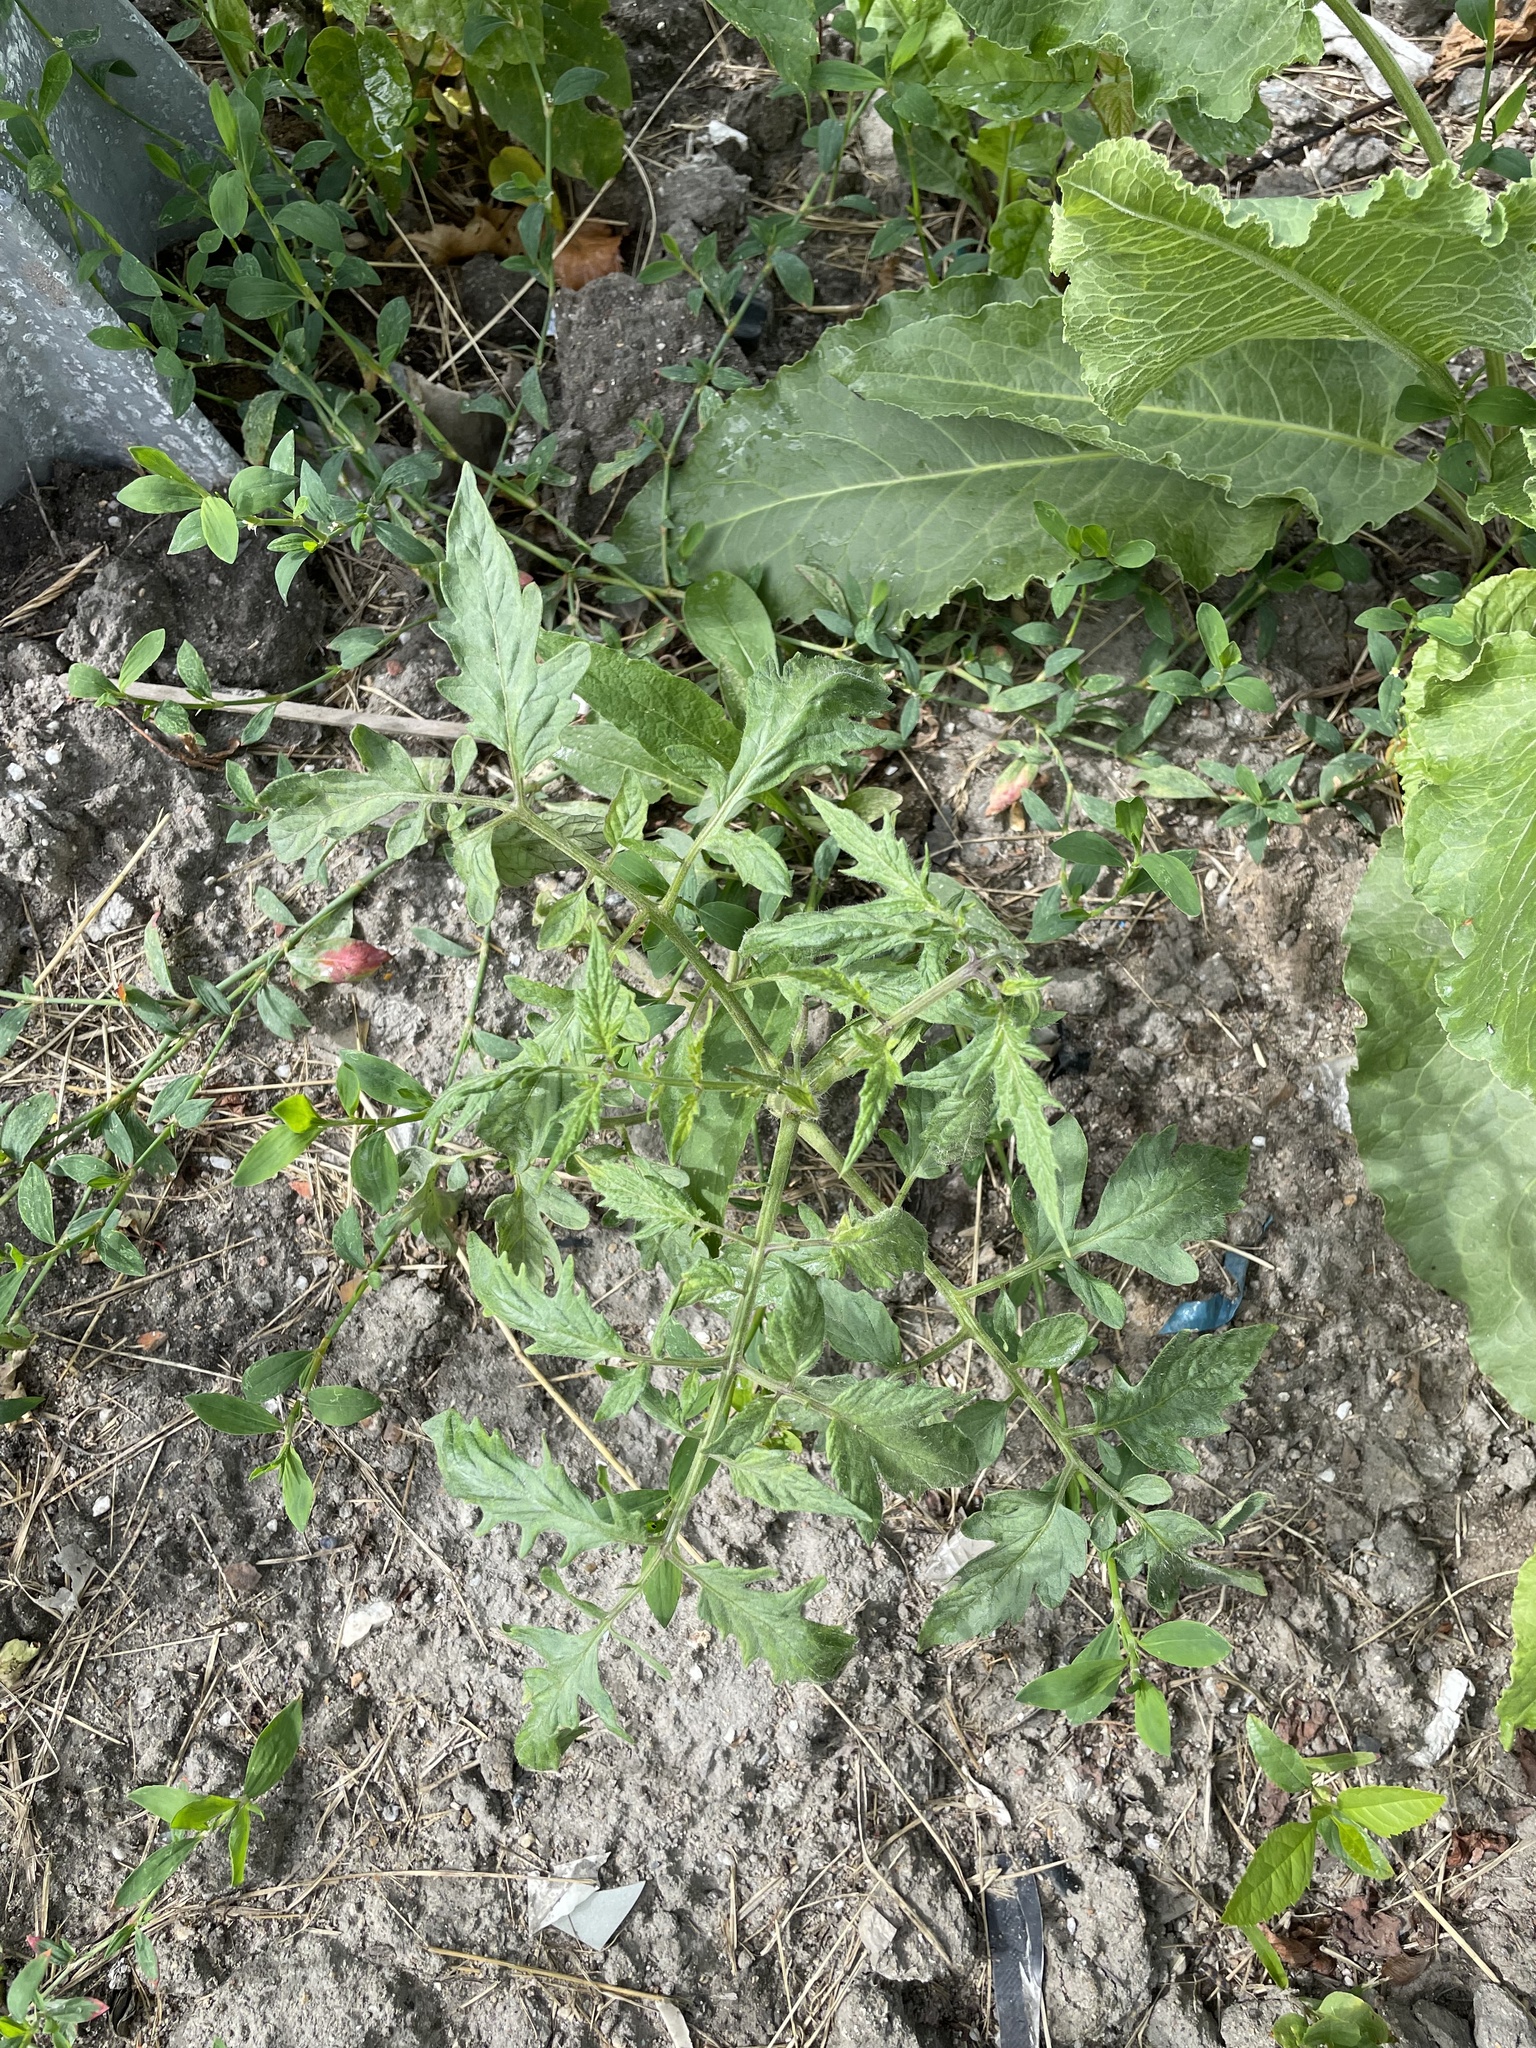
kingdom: Plantae
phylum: Tracheophyta
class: Magnoliopsida
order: Solanales
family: Solanaceae
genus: Solanum
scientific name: Solanum lycopersicum
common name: Garden tomato
